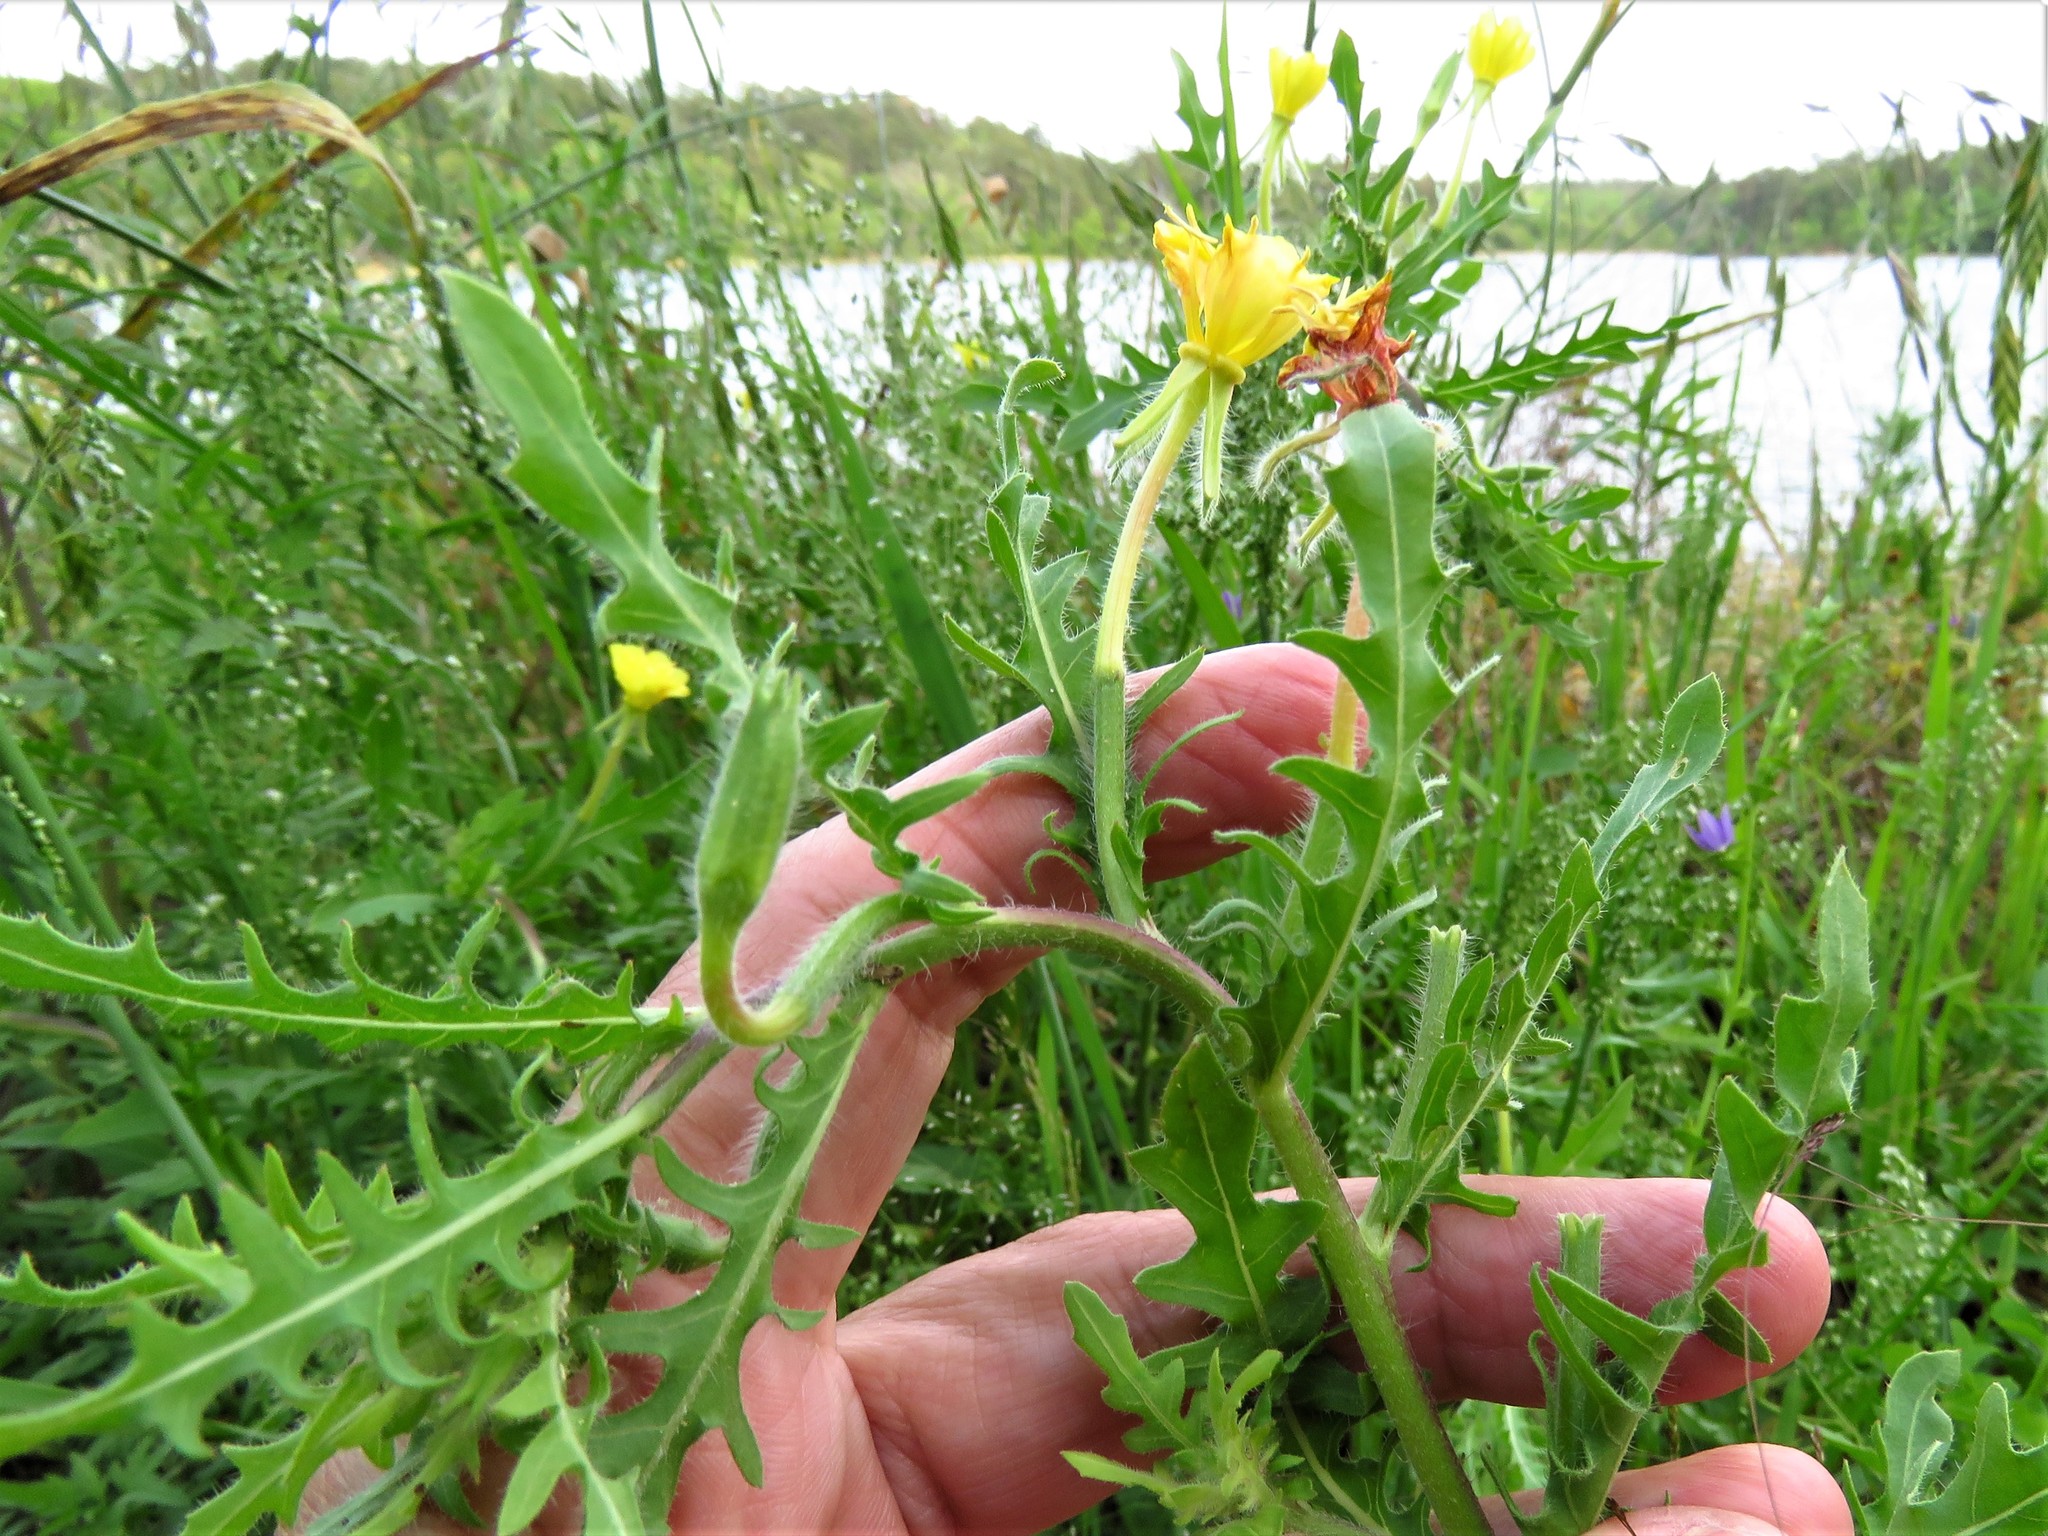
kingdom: Plantae
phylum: Tracheophyta
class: Magnoliopsida
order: Myrtales
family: Onagraceae
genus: Oenothera
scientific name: Oenothera laciniata
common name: Cut-leaved evening-primrose
